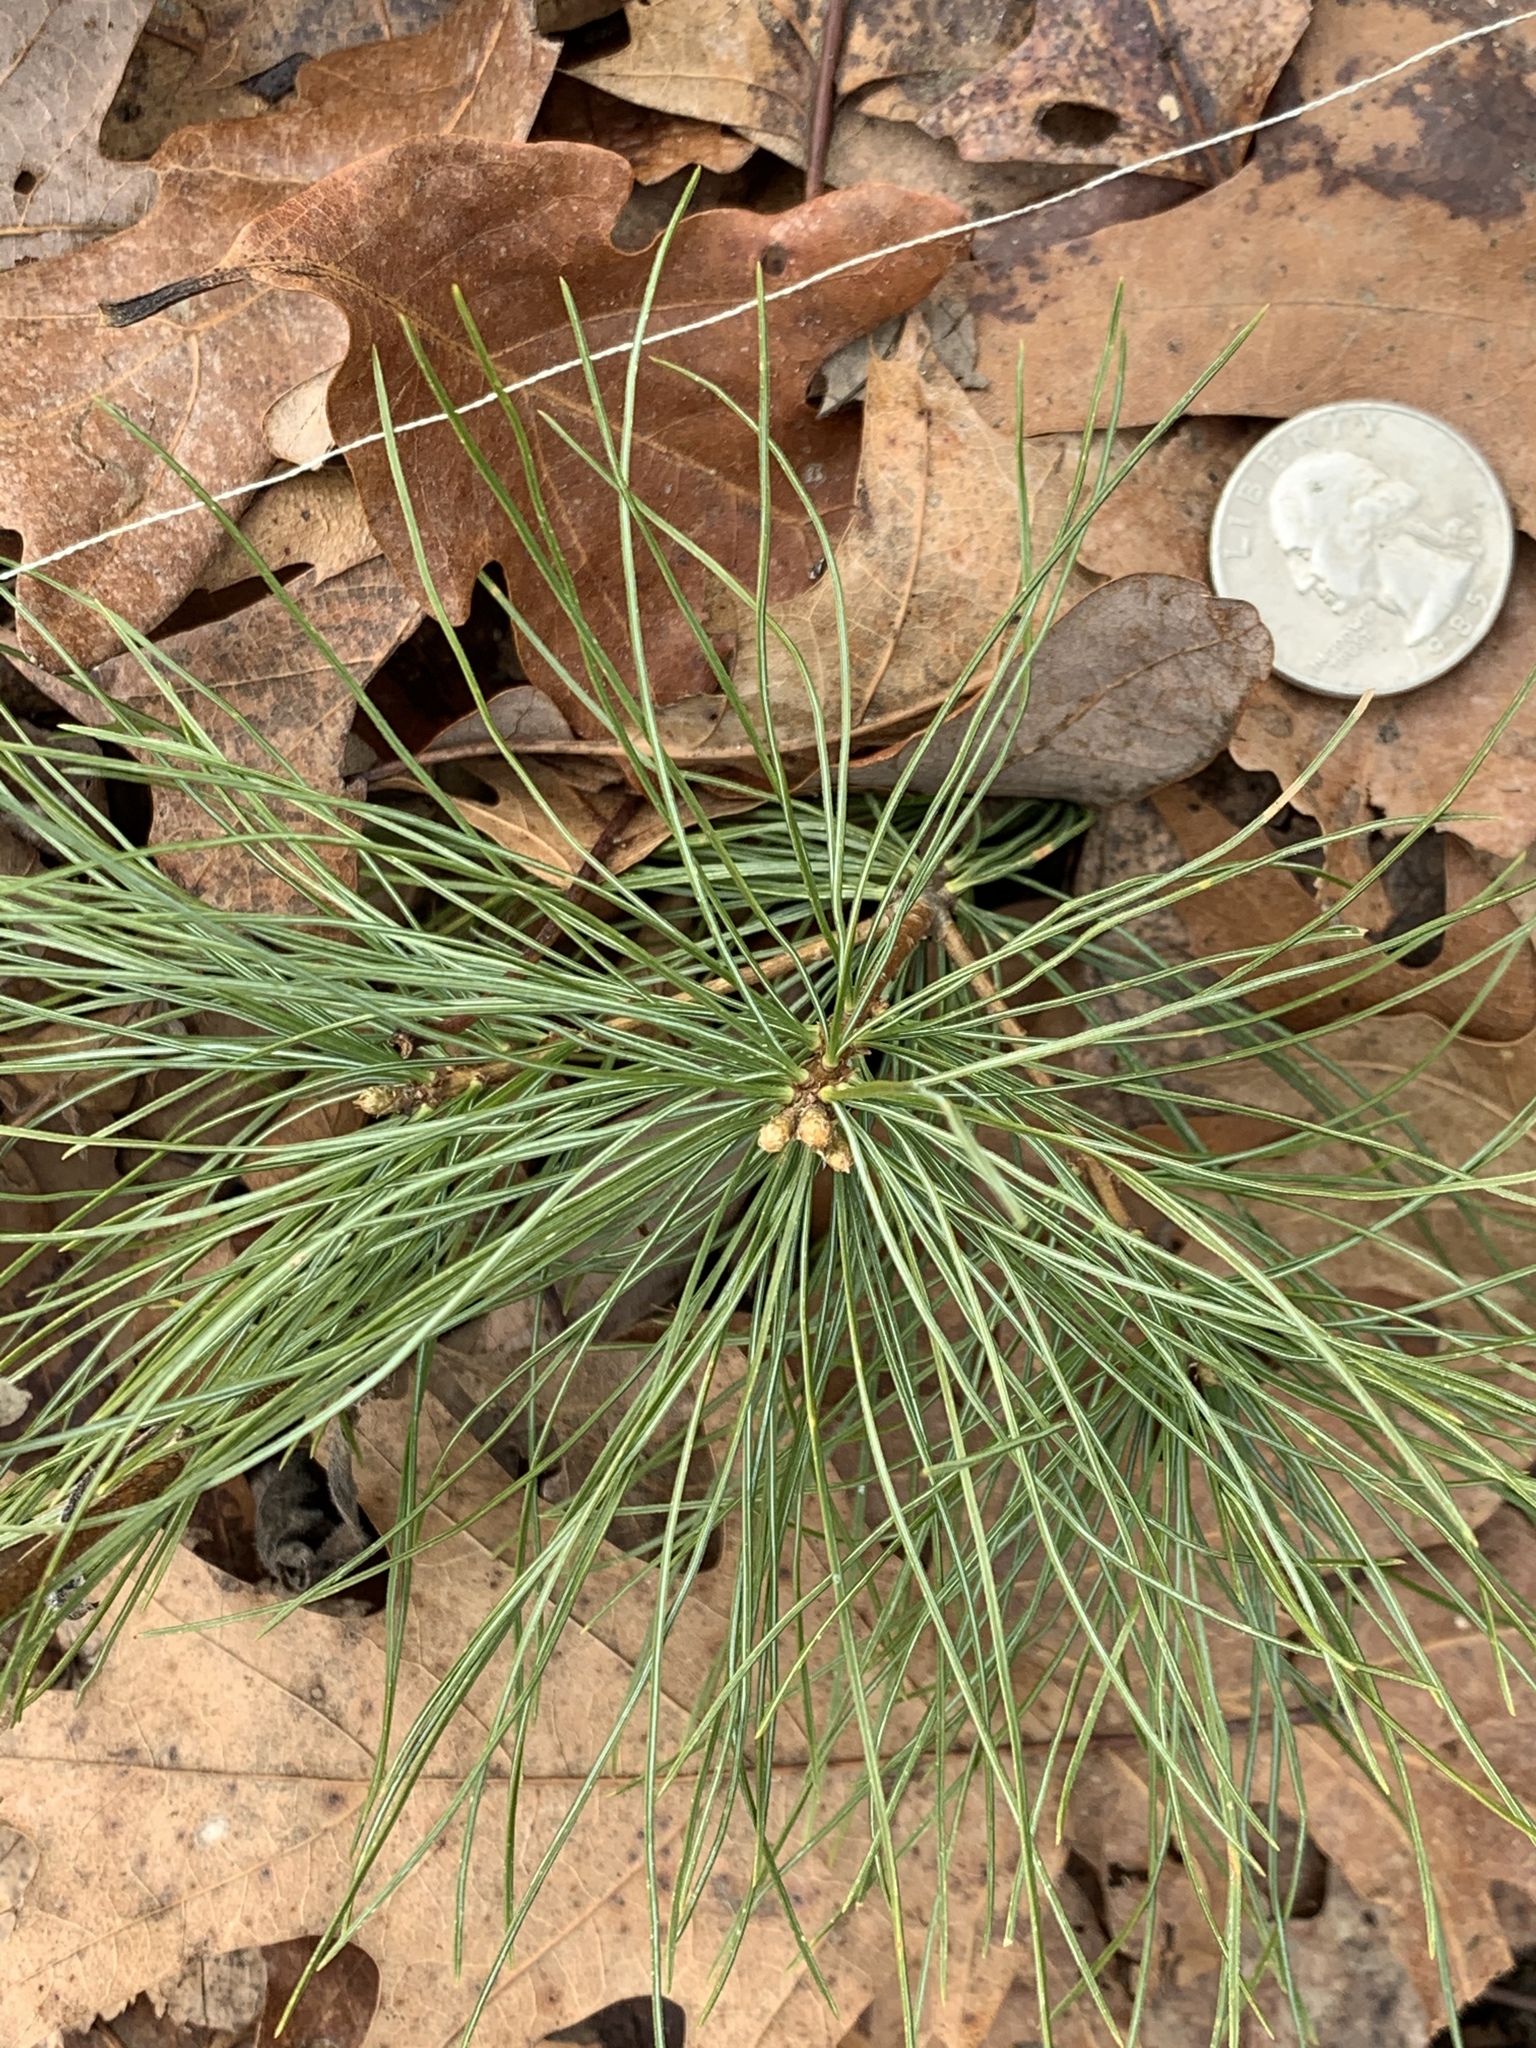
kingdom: Plantae
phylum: Tracheophyta
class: Pinopsida
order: Pinales
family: Pinaceae
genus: Pinus
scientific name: Pinus strobus
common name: Weymouth pine
